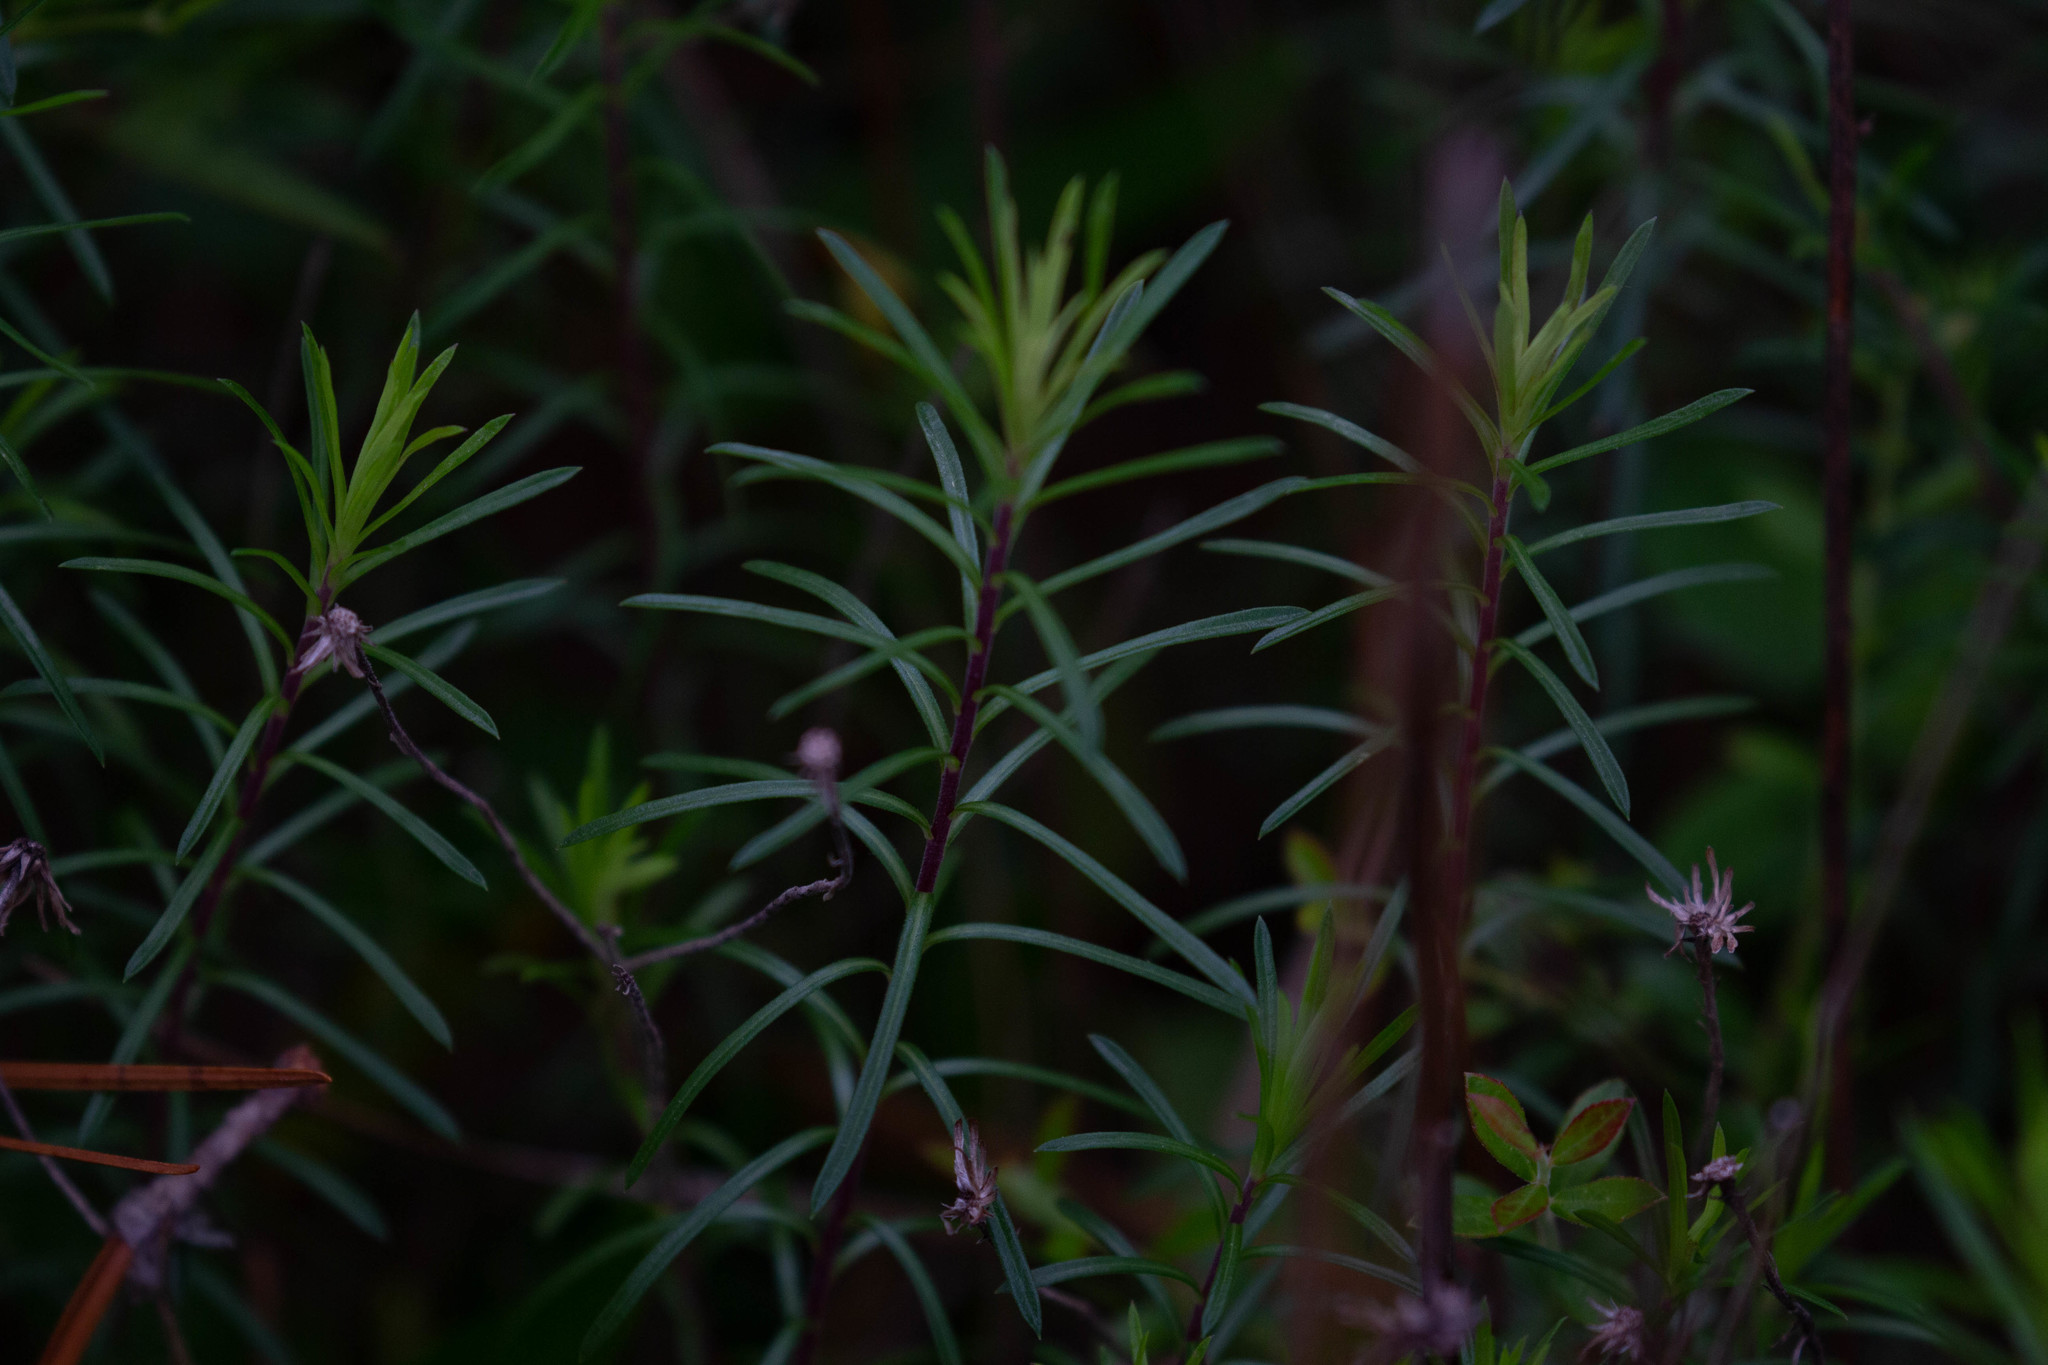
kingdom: Plantae
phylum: Tracheophyta
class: Magnoliopsida
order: Asterales
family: Asteraceae
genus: Ionactis
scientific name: Ionactis repens
